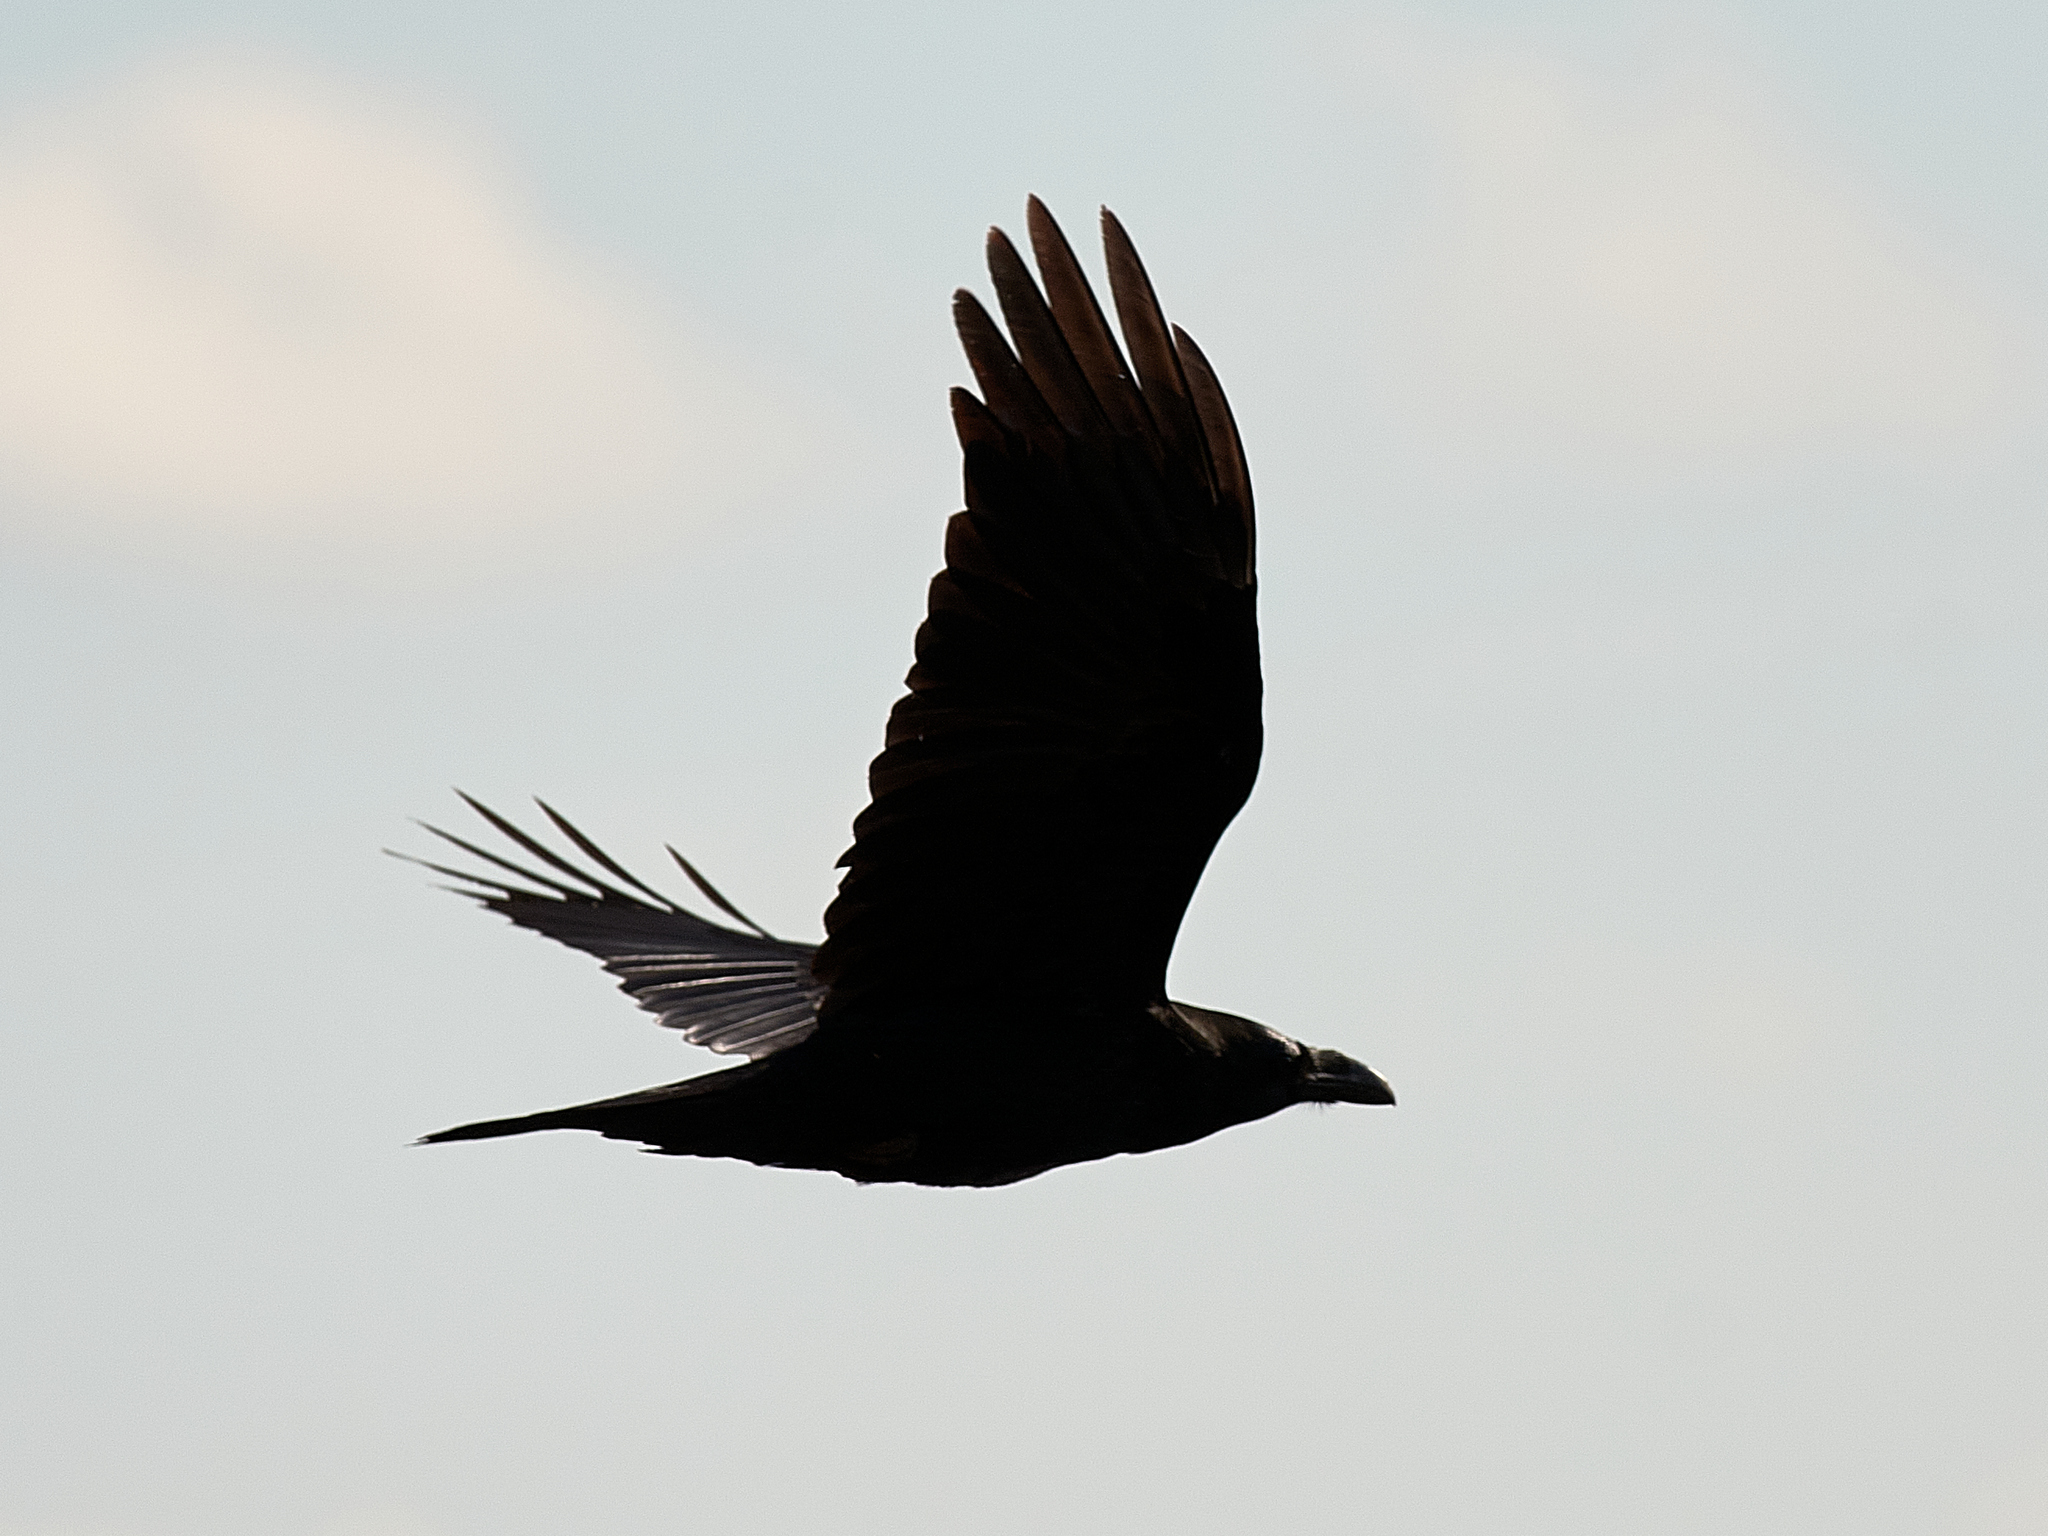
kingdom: Animalia
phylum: Chordata
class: Aves
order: Passeriformes
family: Corvidae
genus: Corvus
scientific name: Corvus corax
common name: Common raven
